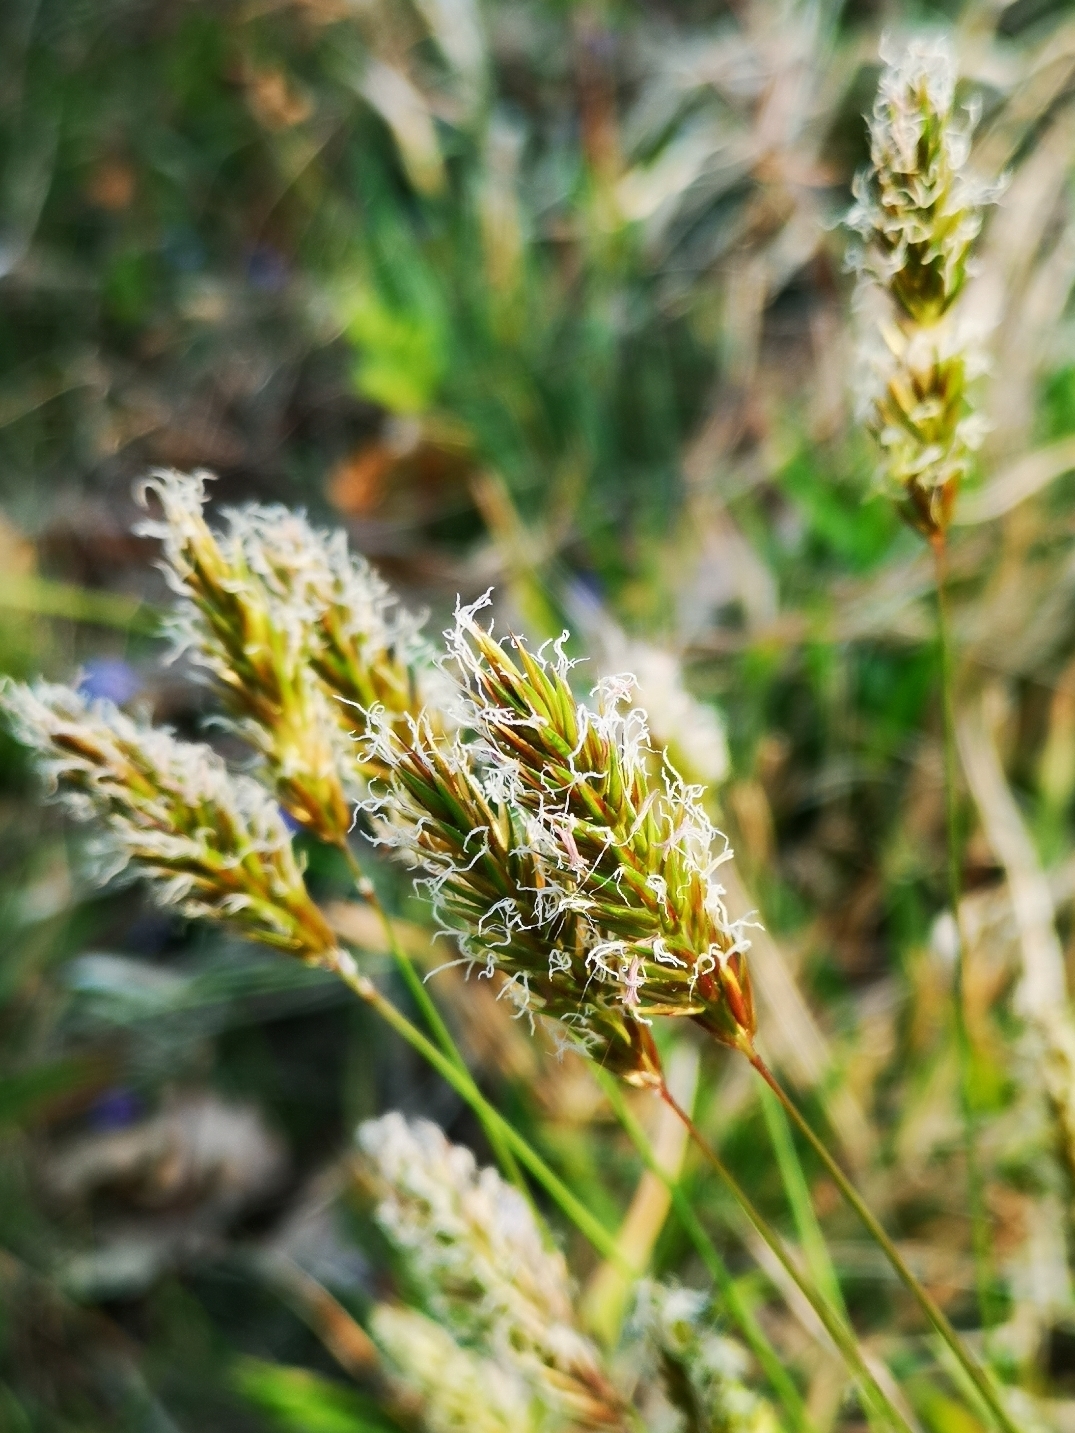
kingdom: Plantae
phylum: Tracheophyta
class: Liliopsida
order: Poales
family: Poaceae
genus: Anthoxanthum
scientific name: Anthoxanthum odoratum
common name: Sweet vernalgrass
